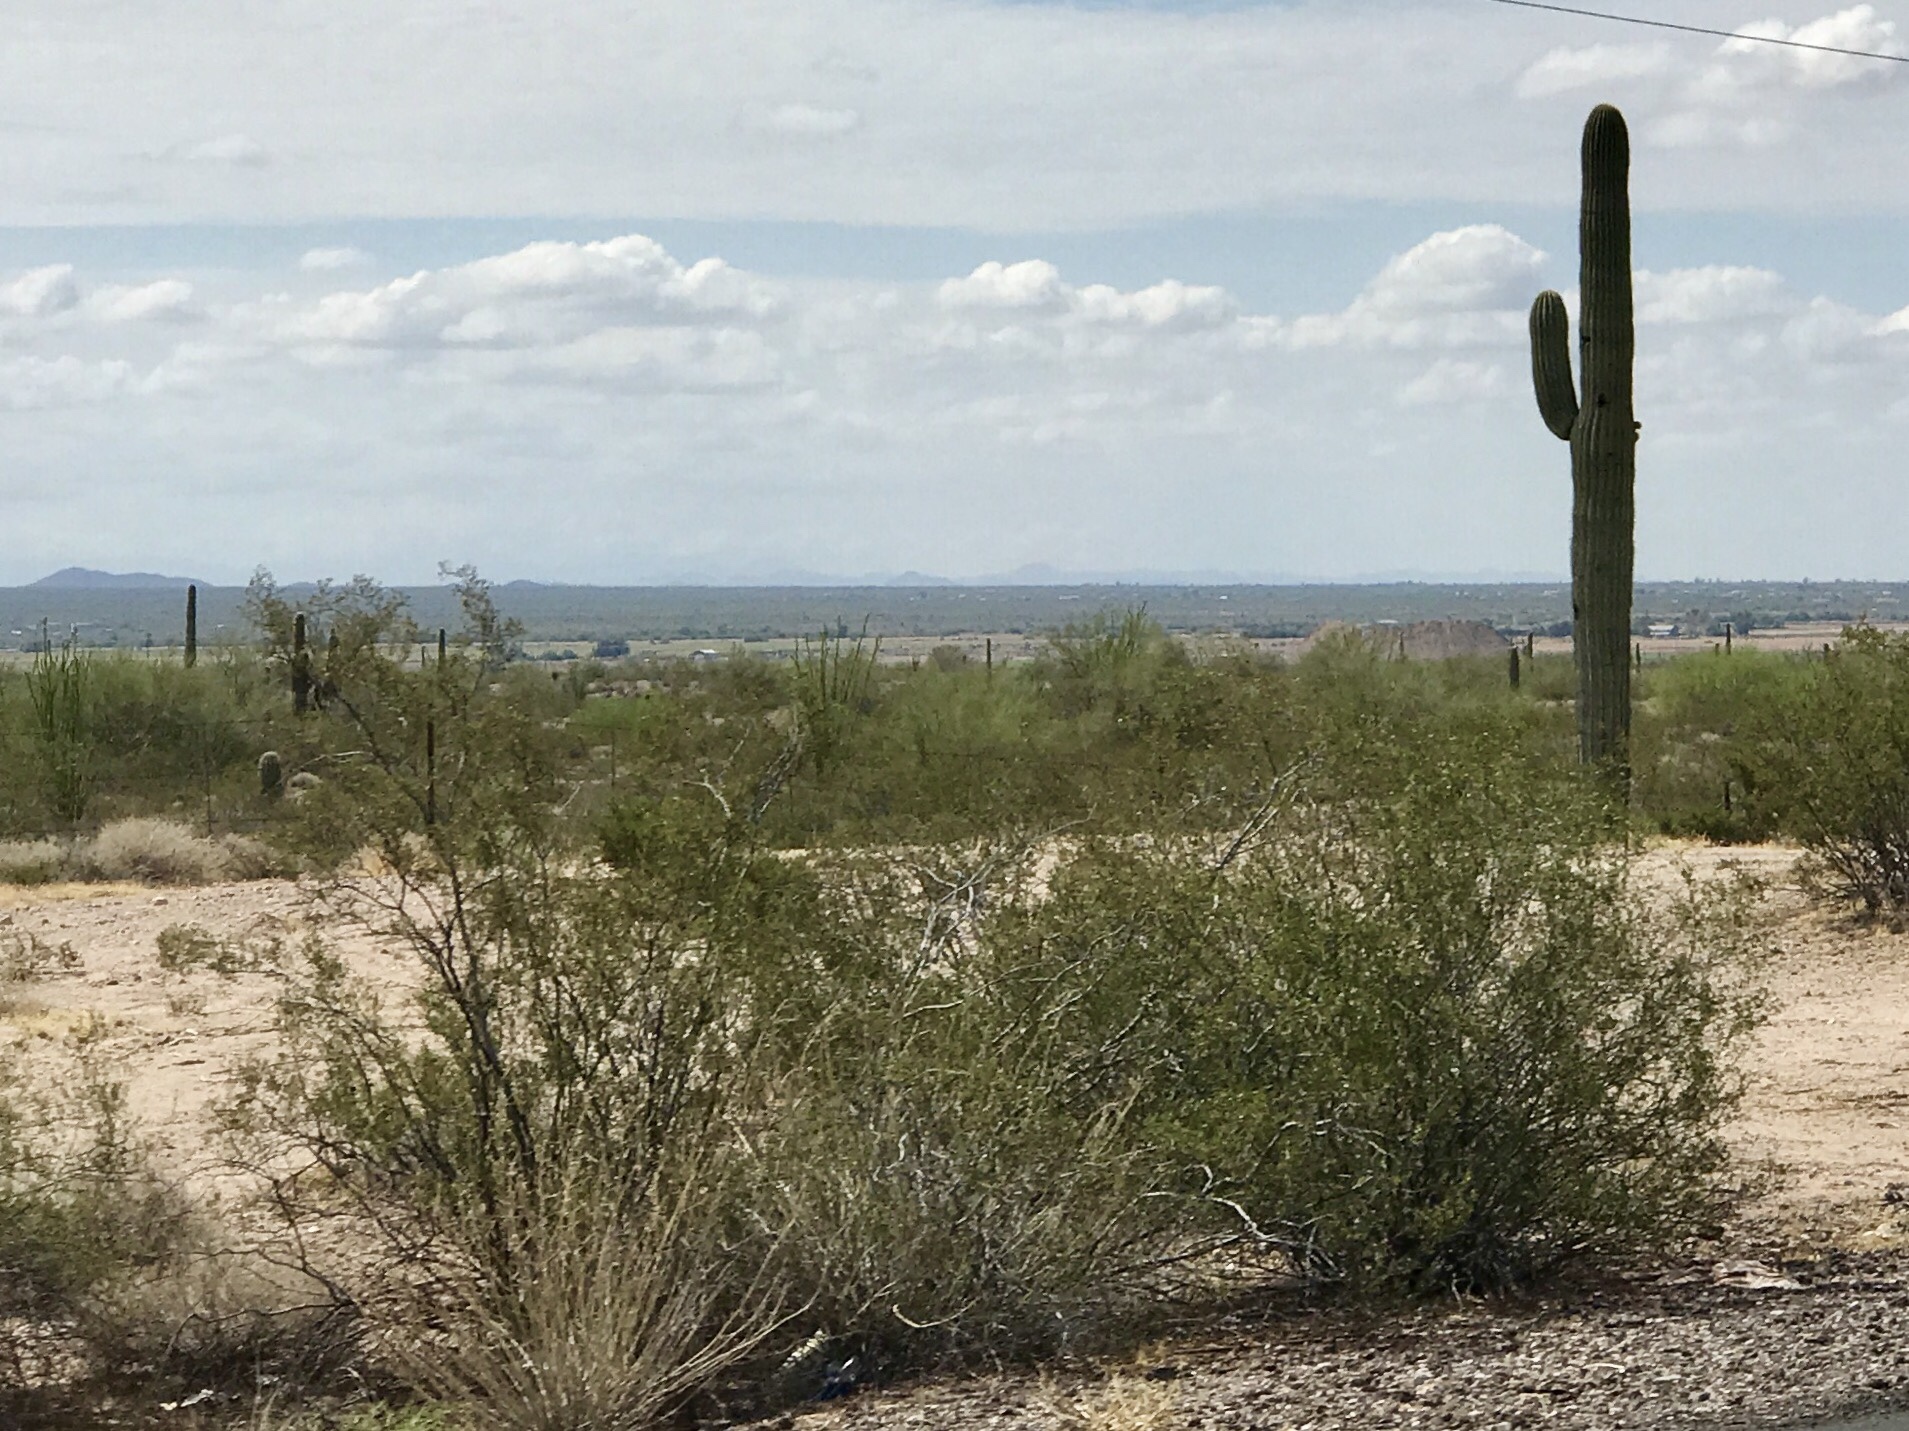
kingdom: Plantae
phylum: Tracheophyta
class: Magnoliopsida
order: Zygophyllales
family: Zygophyllaceae
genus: Larrea
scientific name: Larrea tridentata
